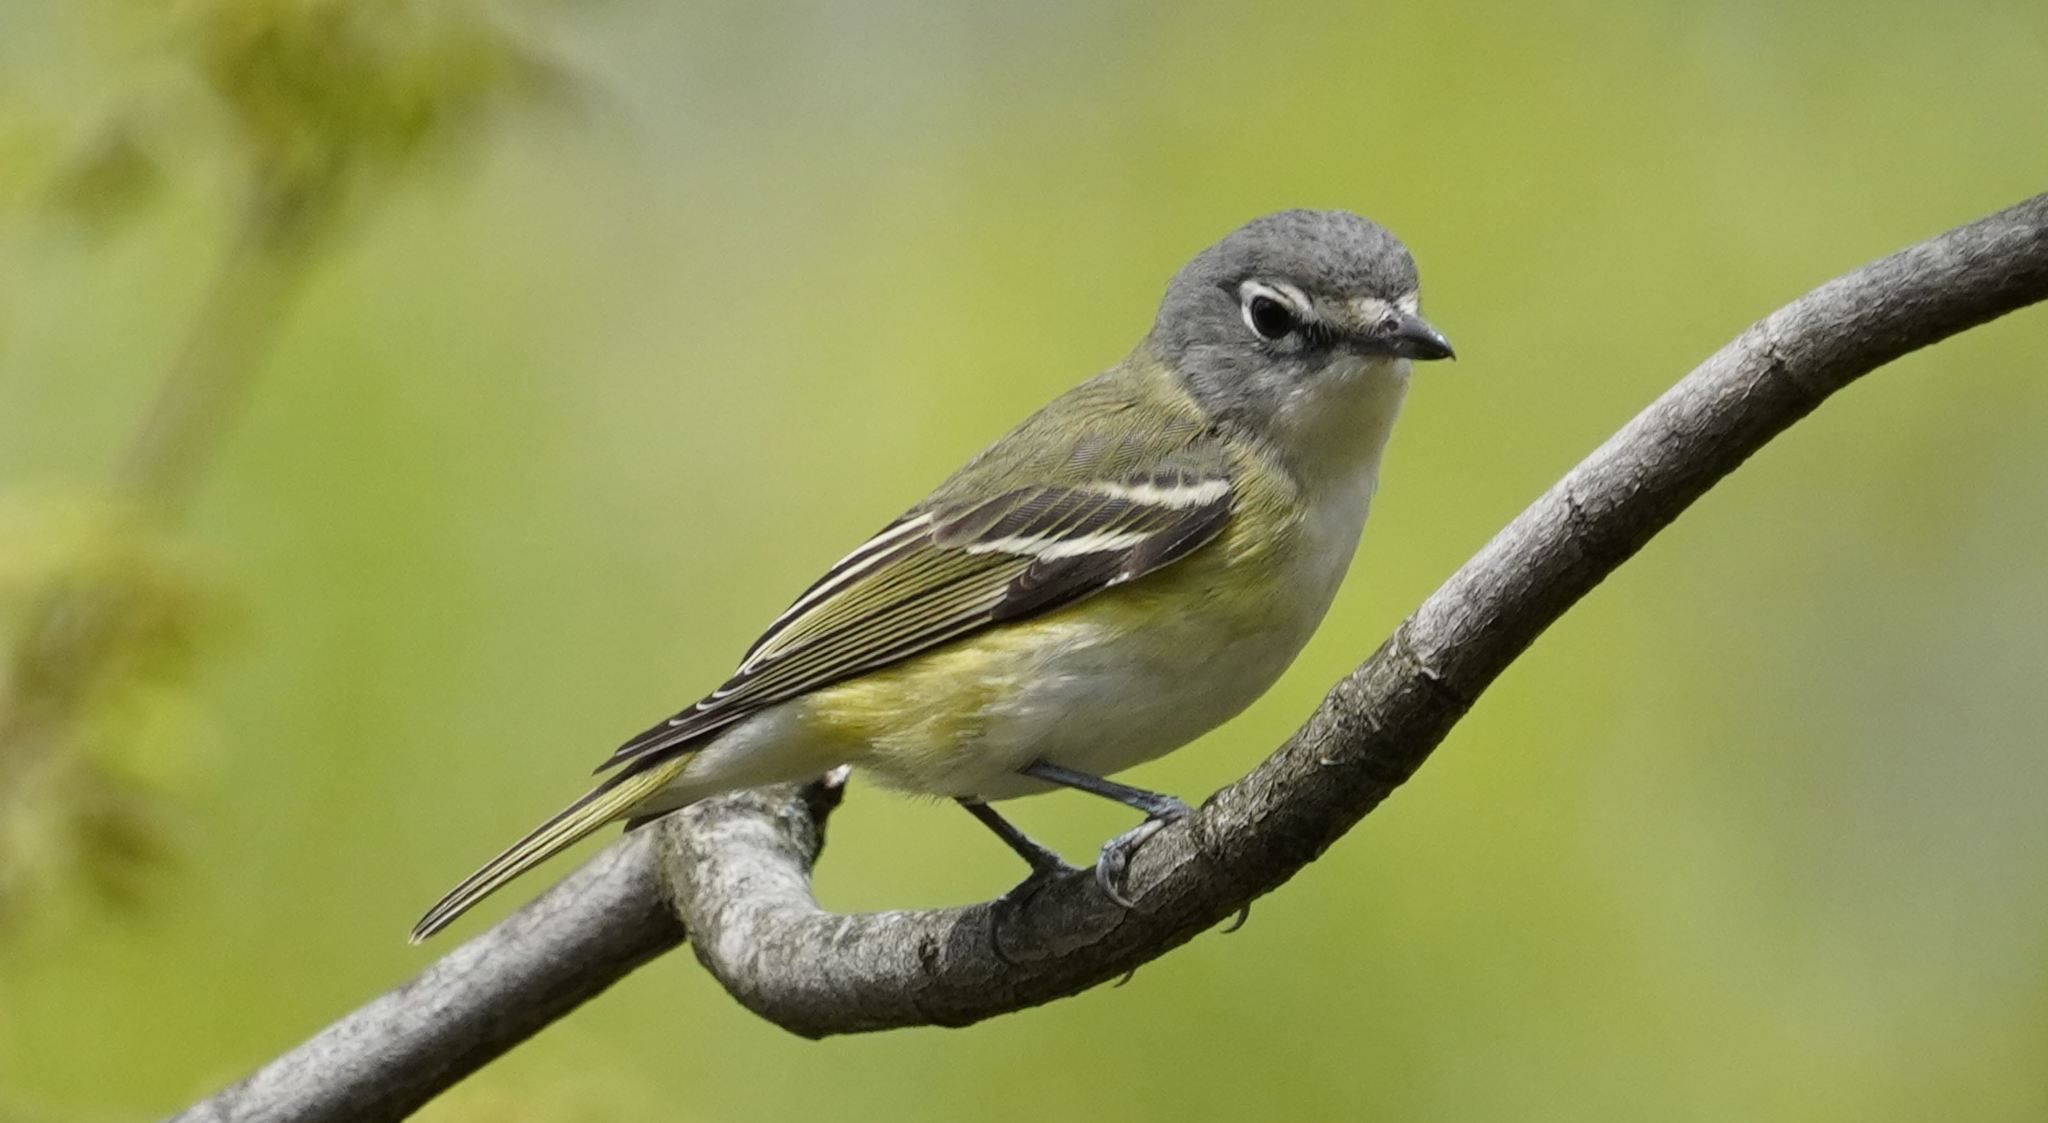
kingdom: Animalia
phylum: Chordata
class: Aves
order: Passeriformes
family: Vireonidae
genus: Vireo
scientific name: Vireo solitarius
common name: Blue-headed vireo
